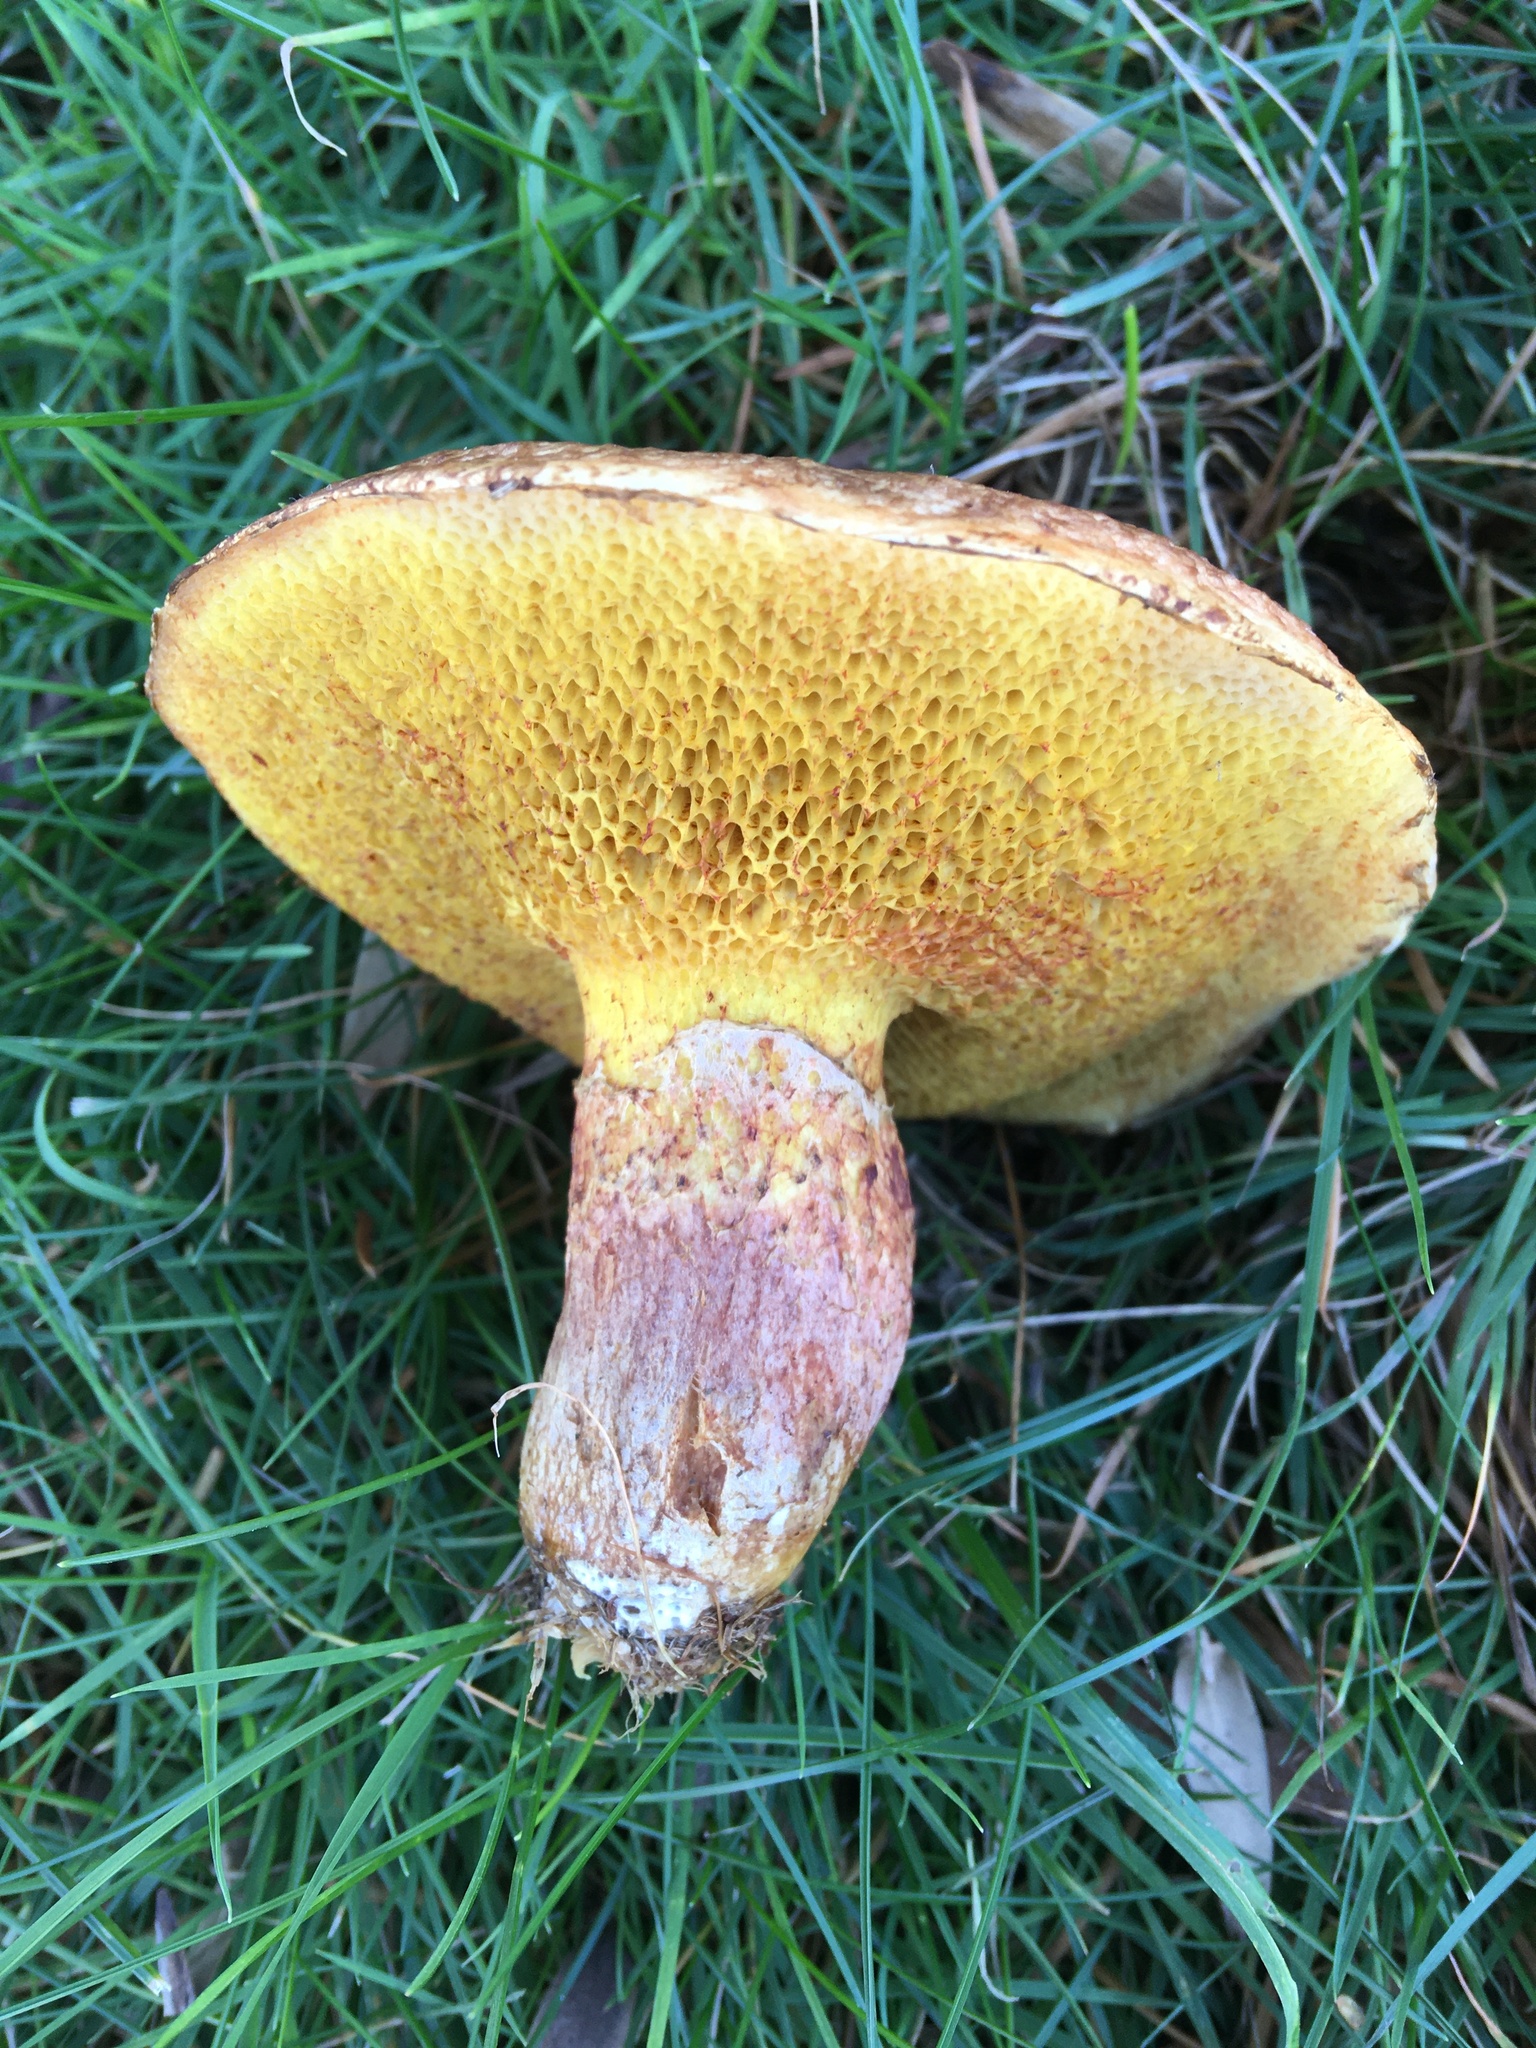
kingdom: Fungi
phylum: Basidiomycota
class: Agaricomycetes
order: Boletales
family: Suillaceae
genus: Suillus
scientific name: Suillus lakei
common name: Western painted suillus
